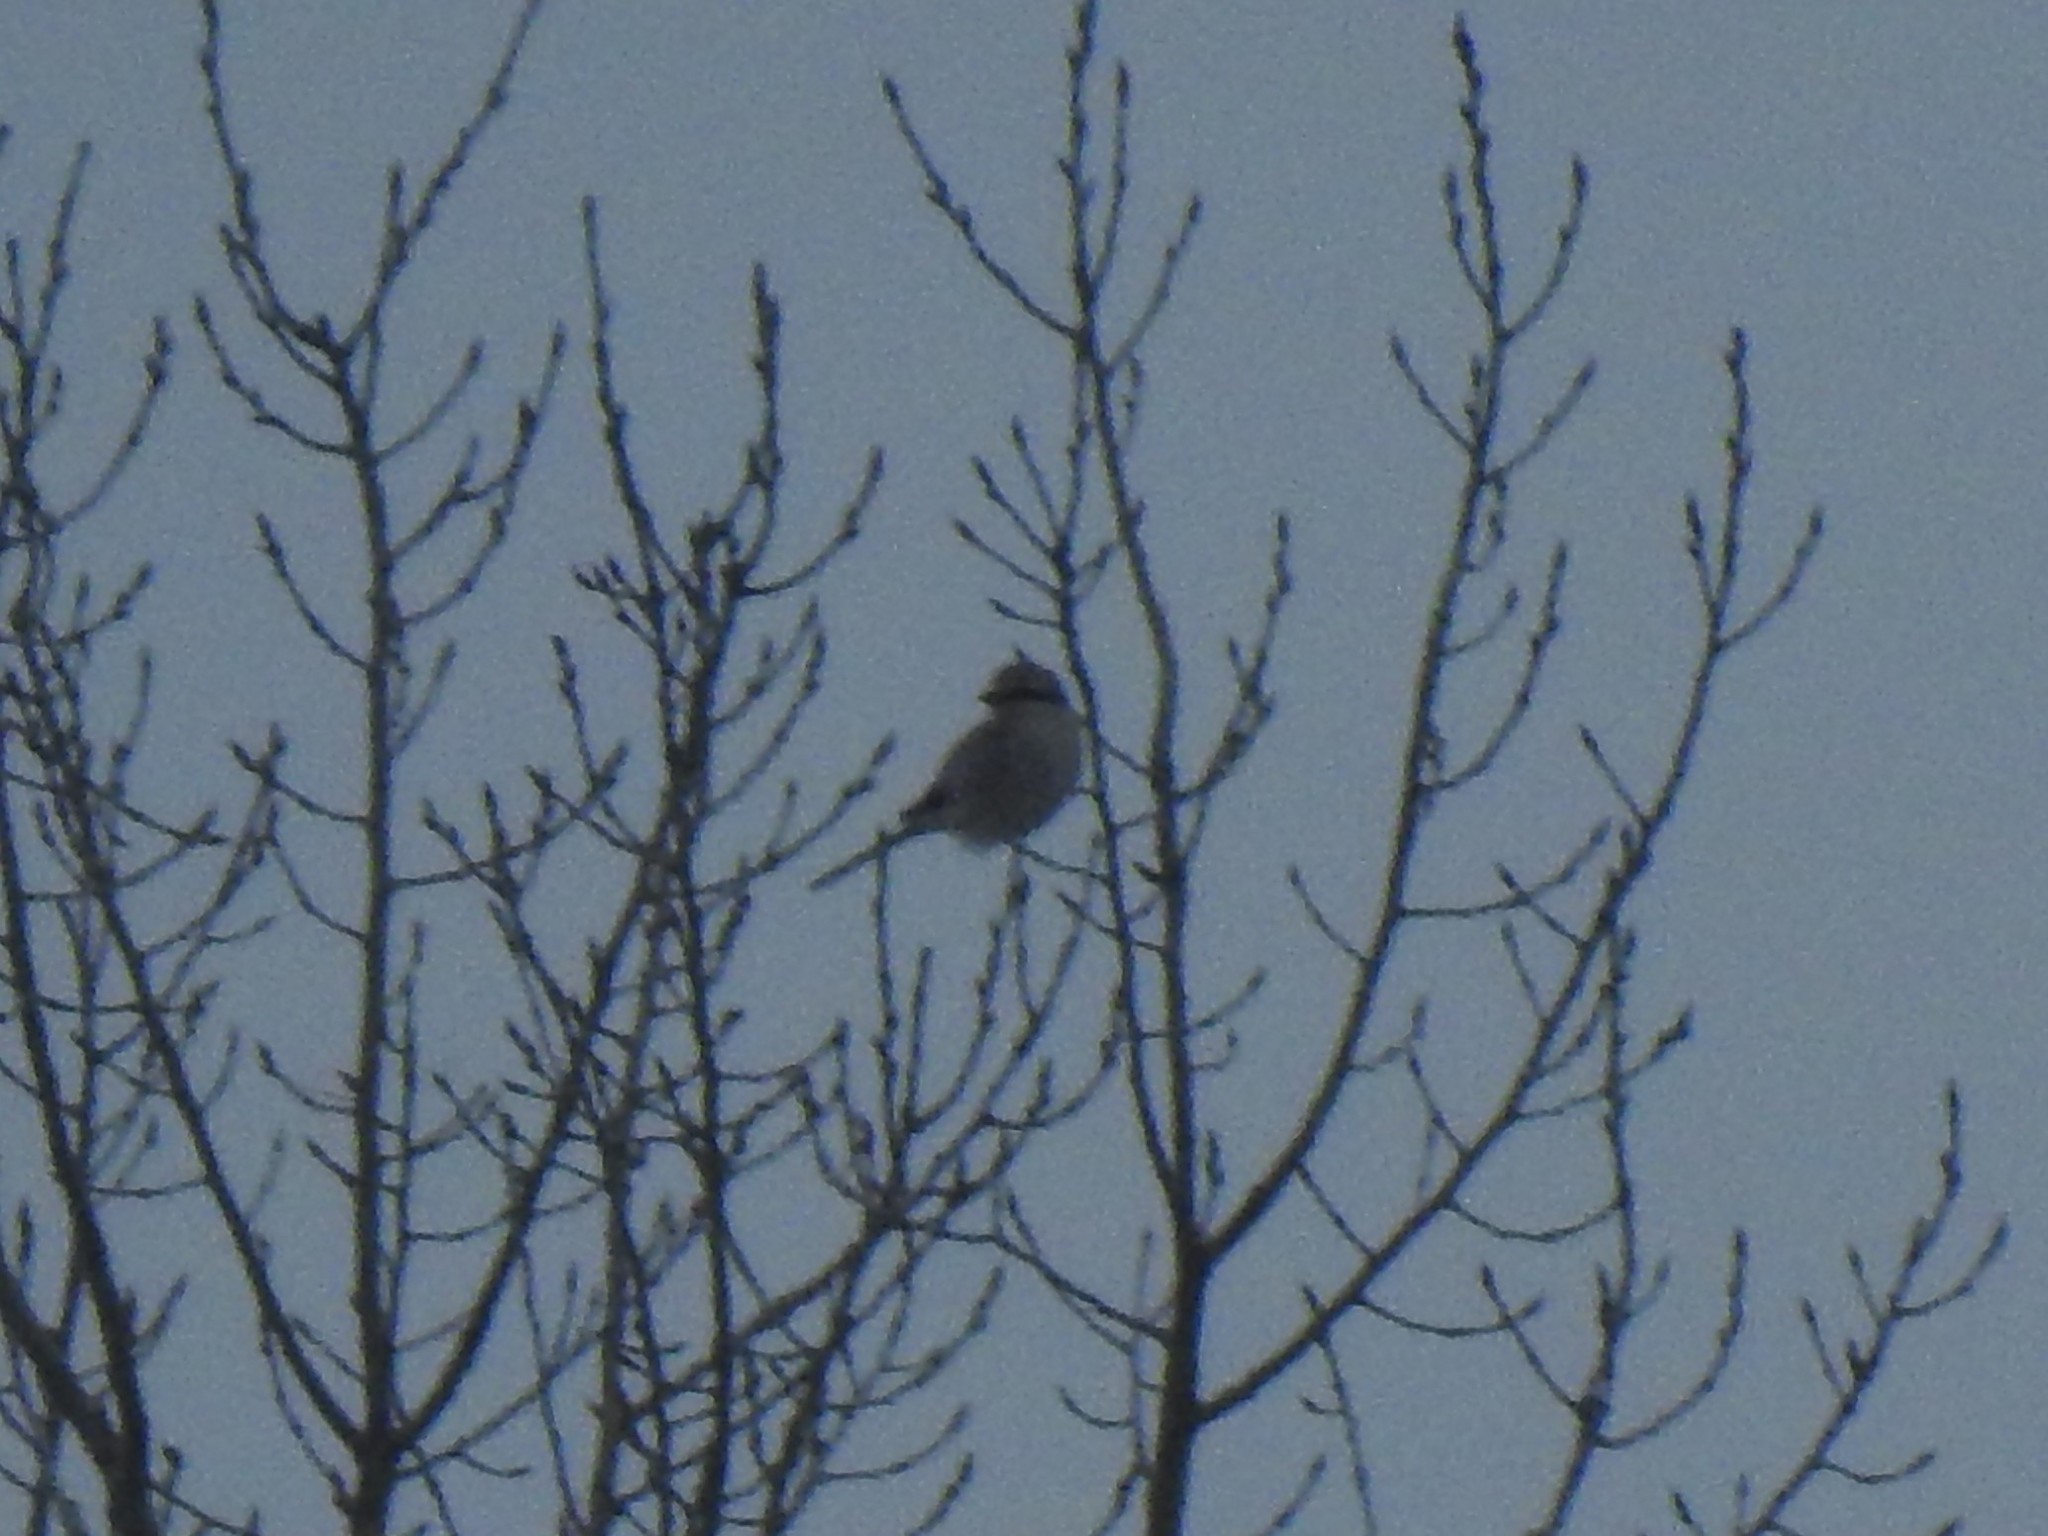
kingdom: Animalia
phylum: Chordata
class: Aves
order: Passeriformes
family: Laniidae
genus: Lanius
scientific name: Lanius borealis
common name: Northern shrike
